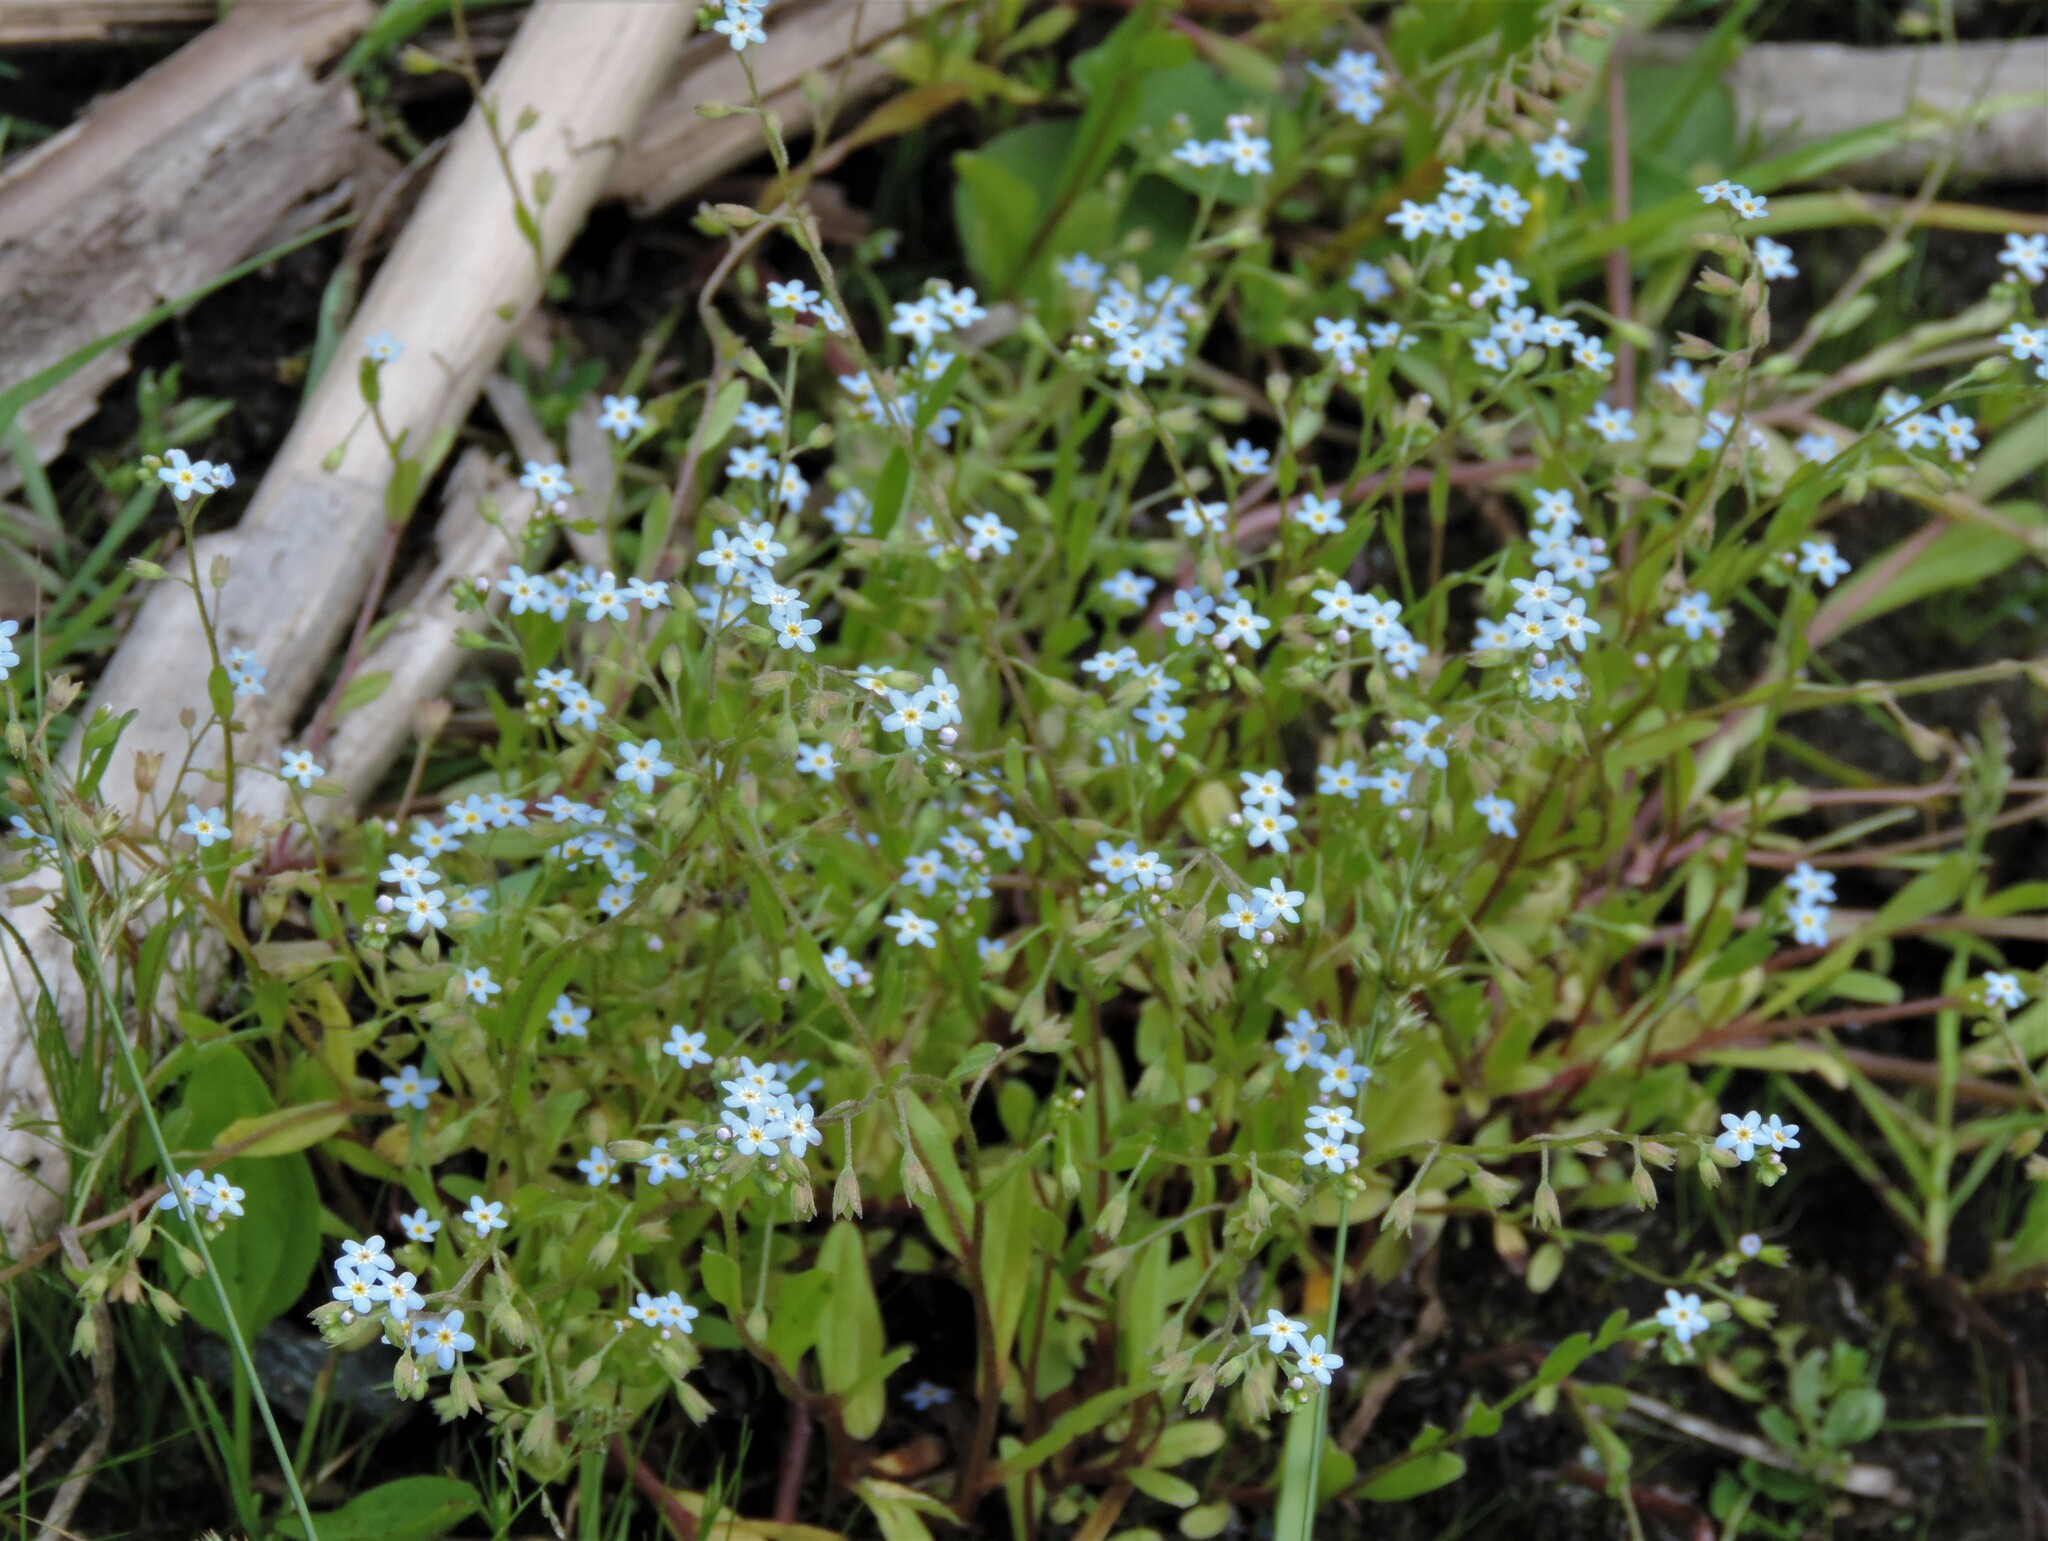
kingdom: Plantae
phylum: Tracheophyta
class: Magnoliopsida
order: Boraginales
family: Boraginaceae
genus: Myosotis
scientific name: Myosotis laxa
